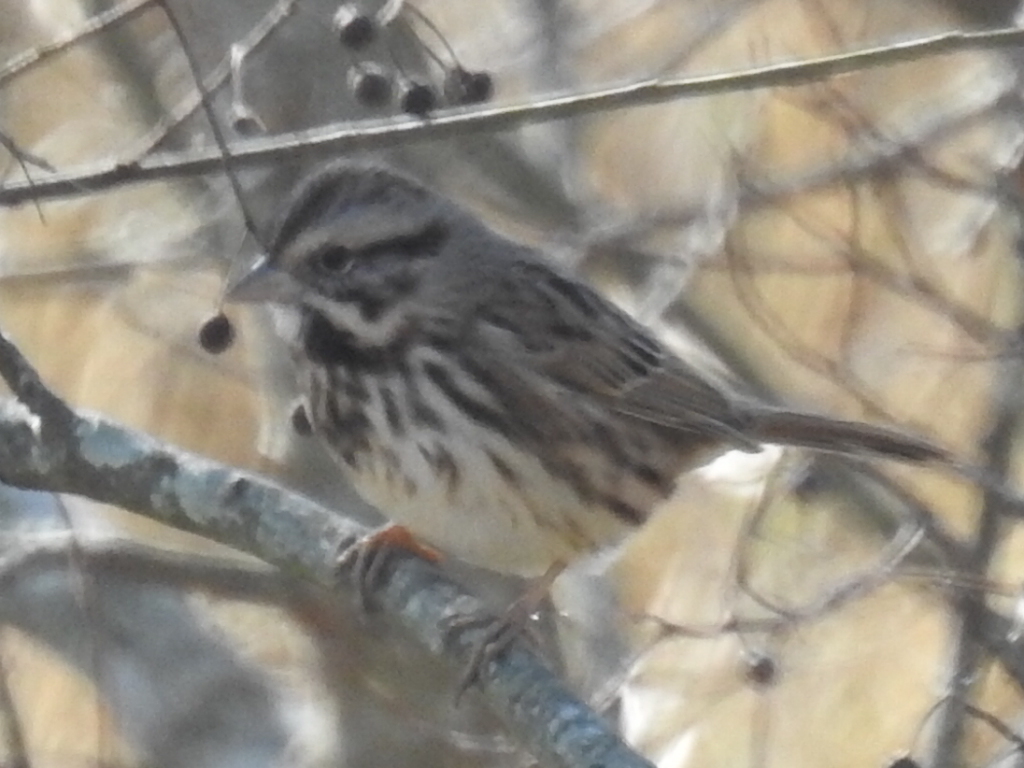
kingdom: Animalia
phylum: Chordata
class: Aves
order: Passeriformes
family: Passerellidae
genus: Melospiza
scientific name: Melospiza melodia
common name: Song sparrow
